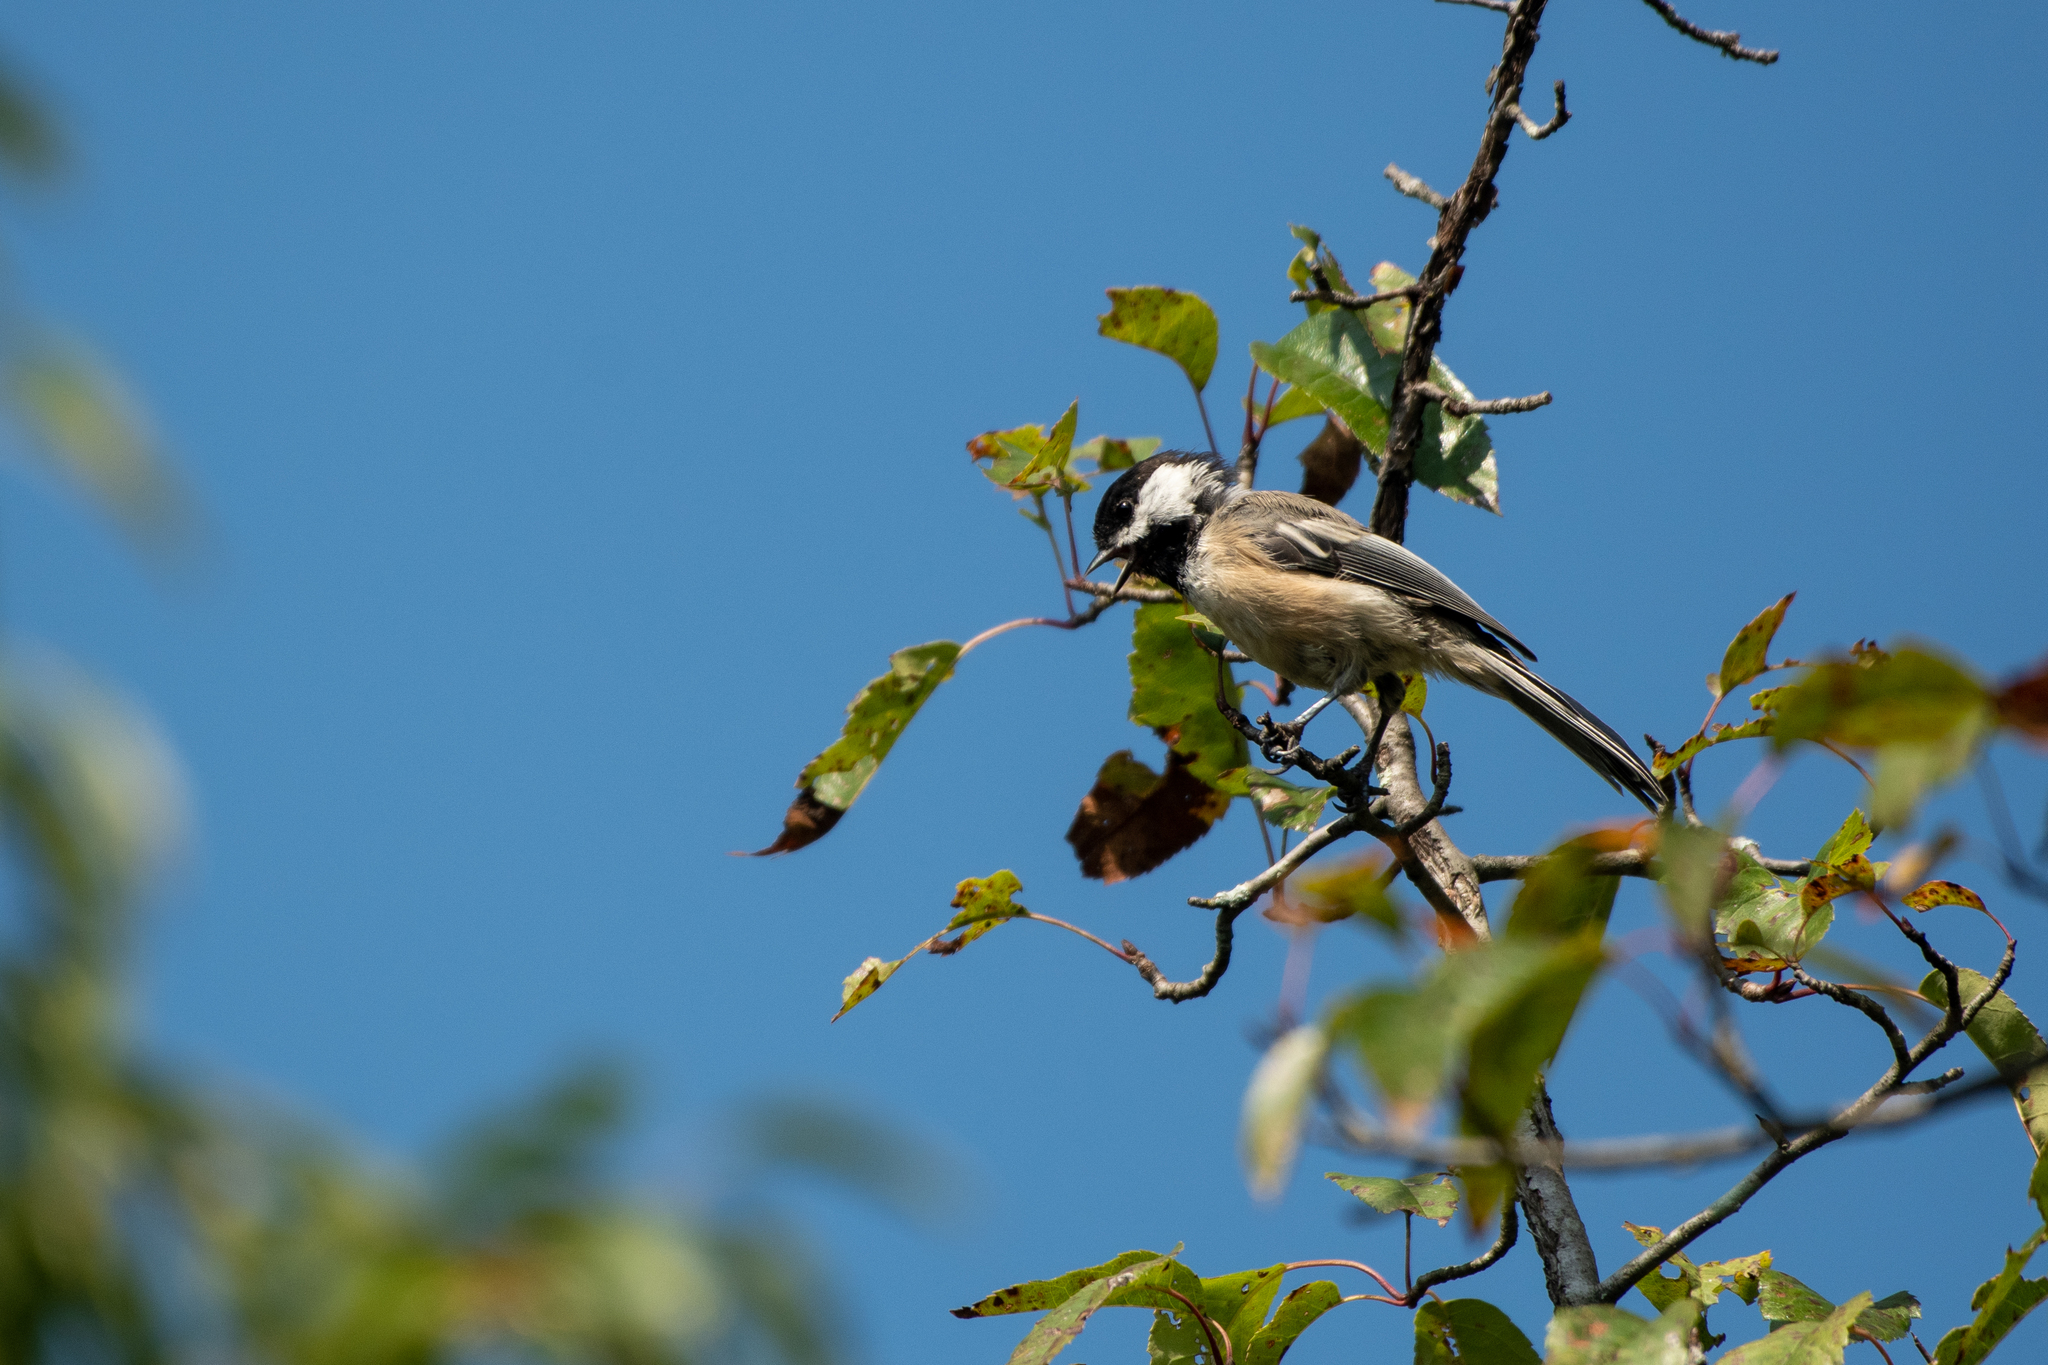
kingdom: Animalia
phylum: Chordata
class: Aves
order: Passeriformes
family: Paridae
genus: Poecile
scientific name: Poecile atricapillus
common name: Black-capped chickadee
